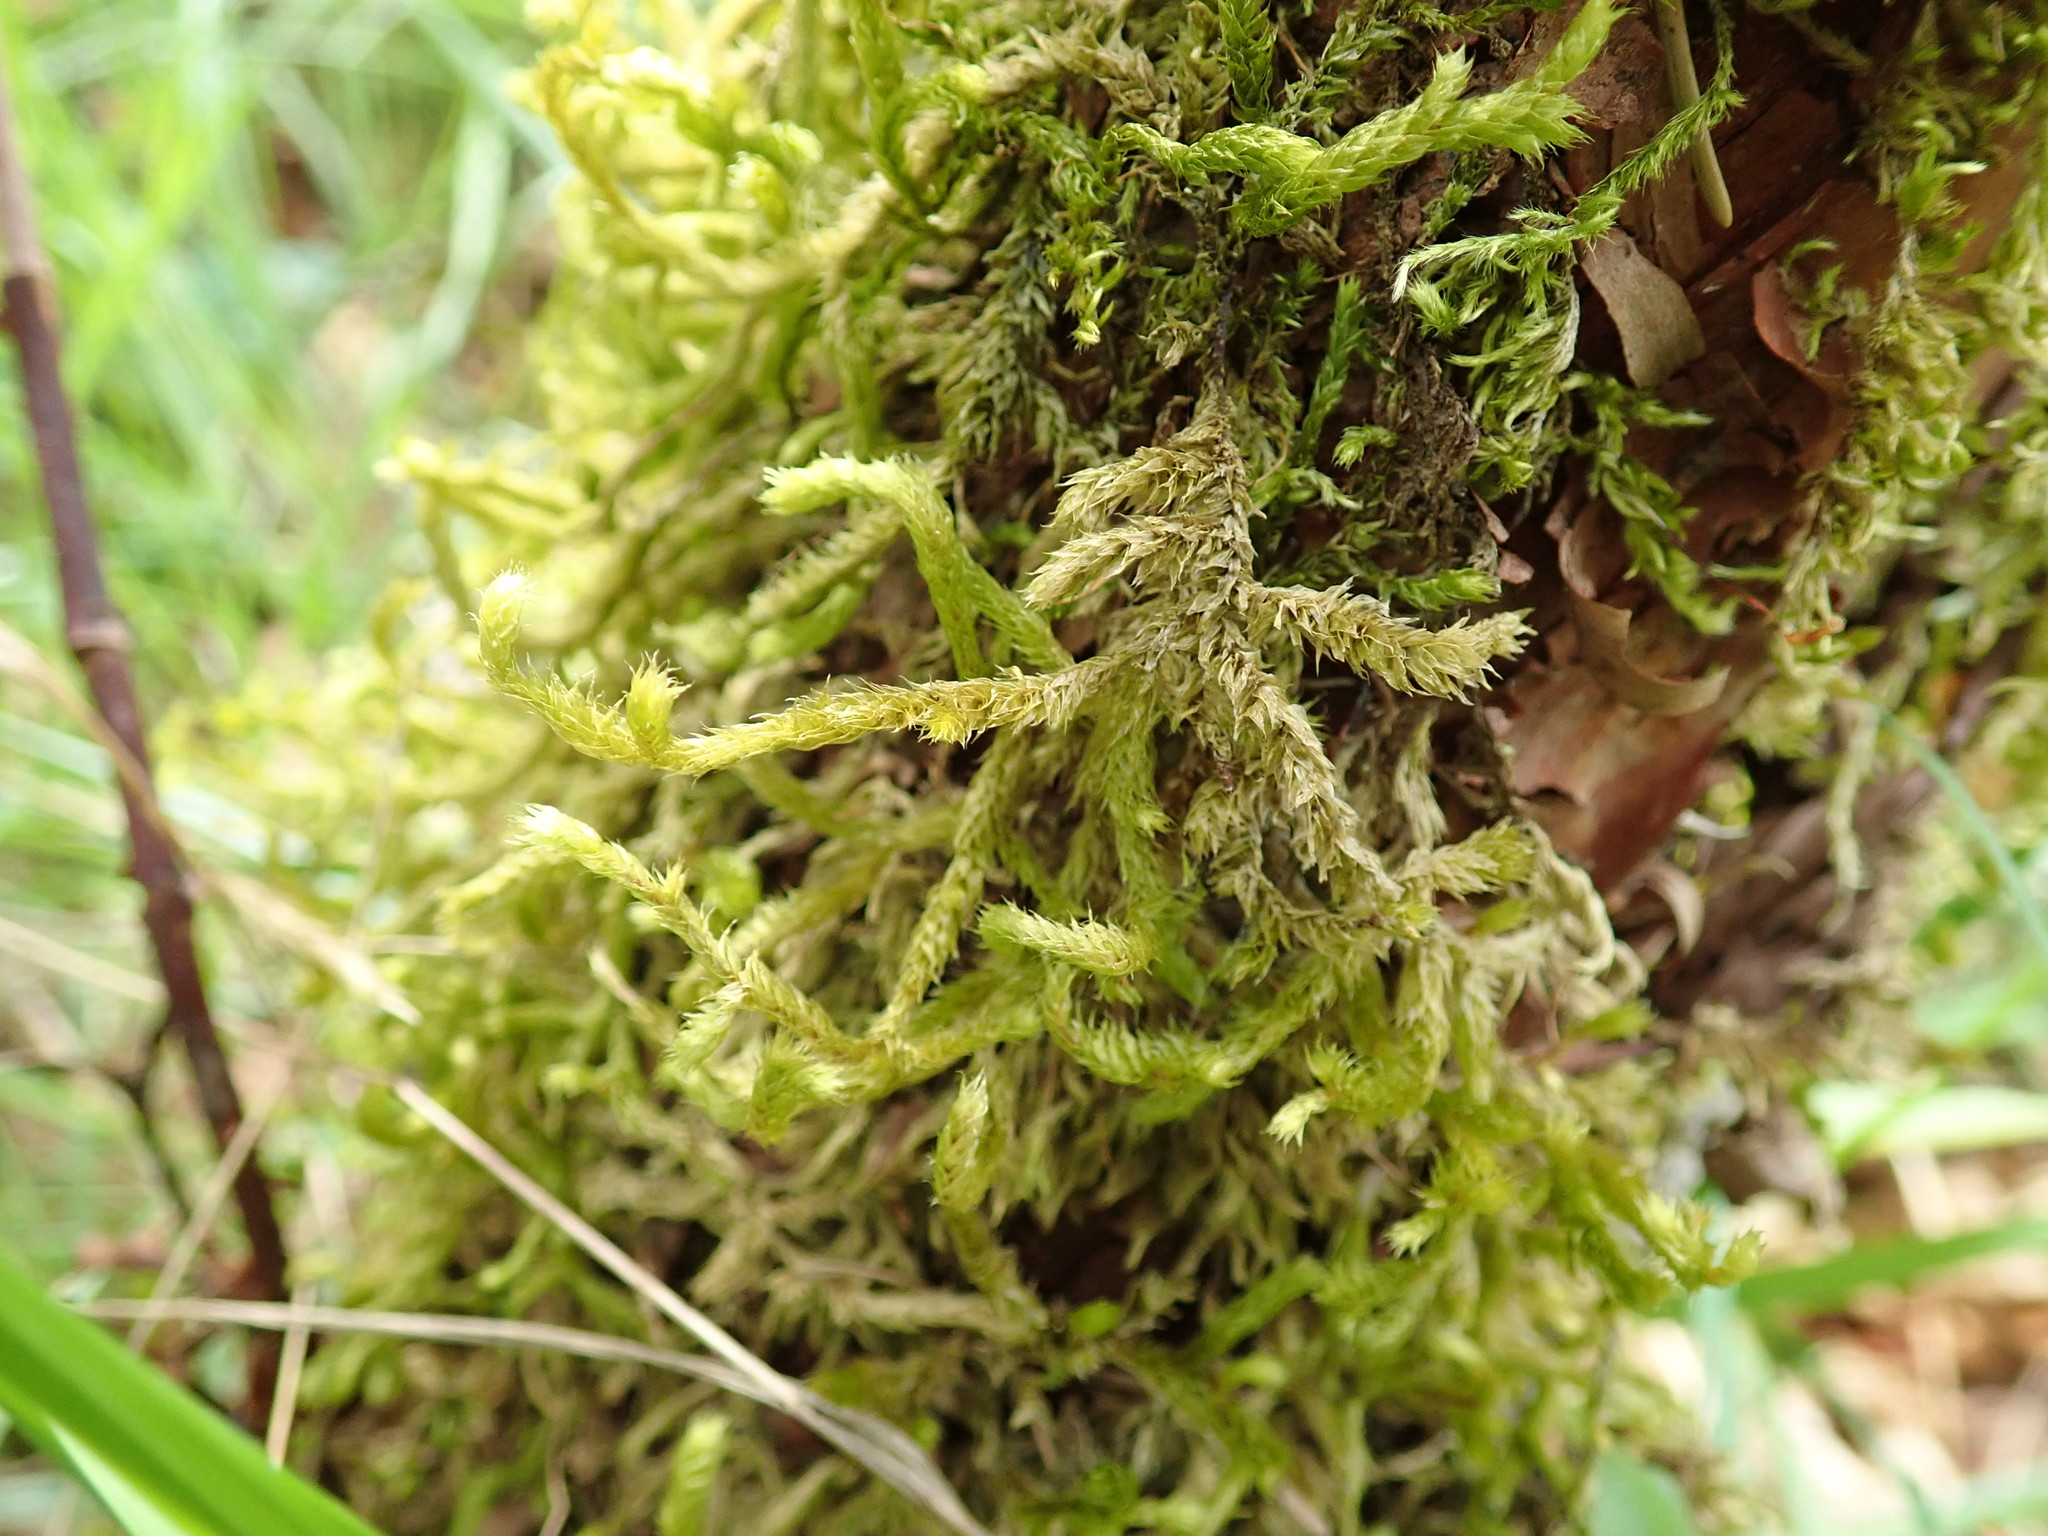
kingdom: Plantae
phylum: Bryophyta
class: Bryopsida
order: Hypnales
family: Antitrichiaceae
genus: Antitrichia
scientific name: Antitrichia curtipendula
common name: Pendulous wing-moss
